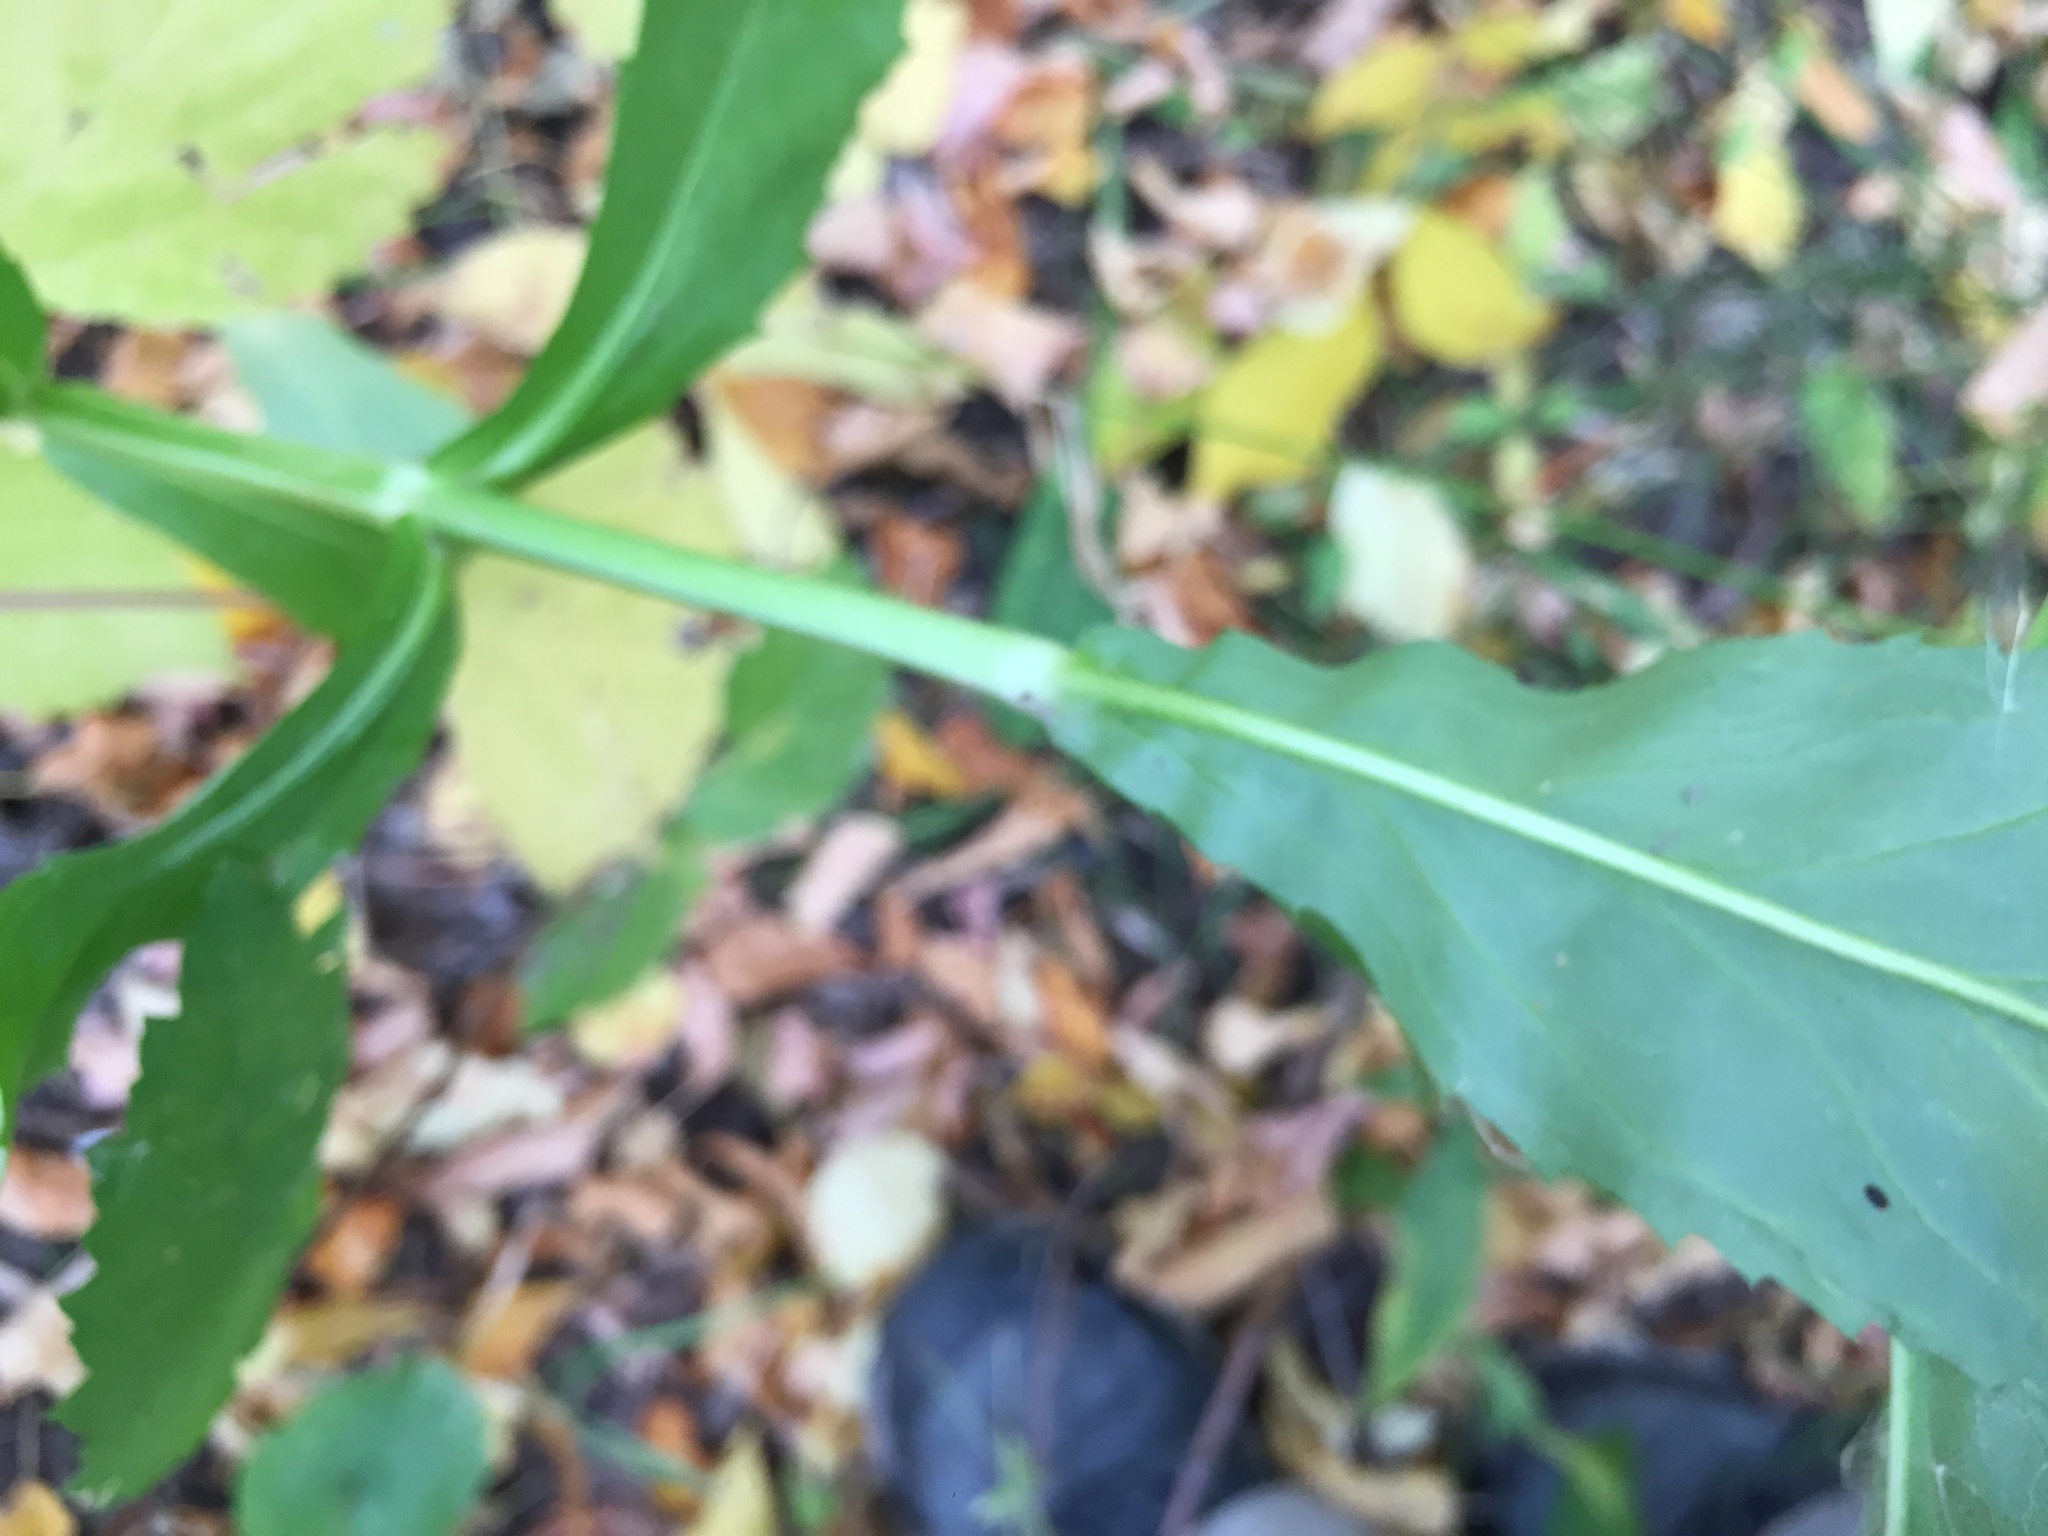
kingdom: Plantae
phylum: Tracheophyta
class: Magnoliopsida
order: Lamiales
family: Lamiaceae
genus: Physostegia
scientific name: Physostegia virginiana
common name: Obedient-plant
